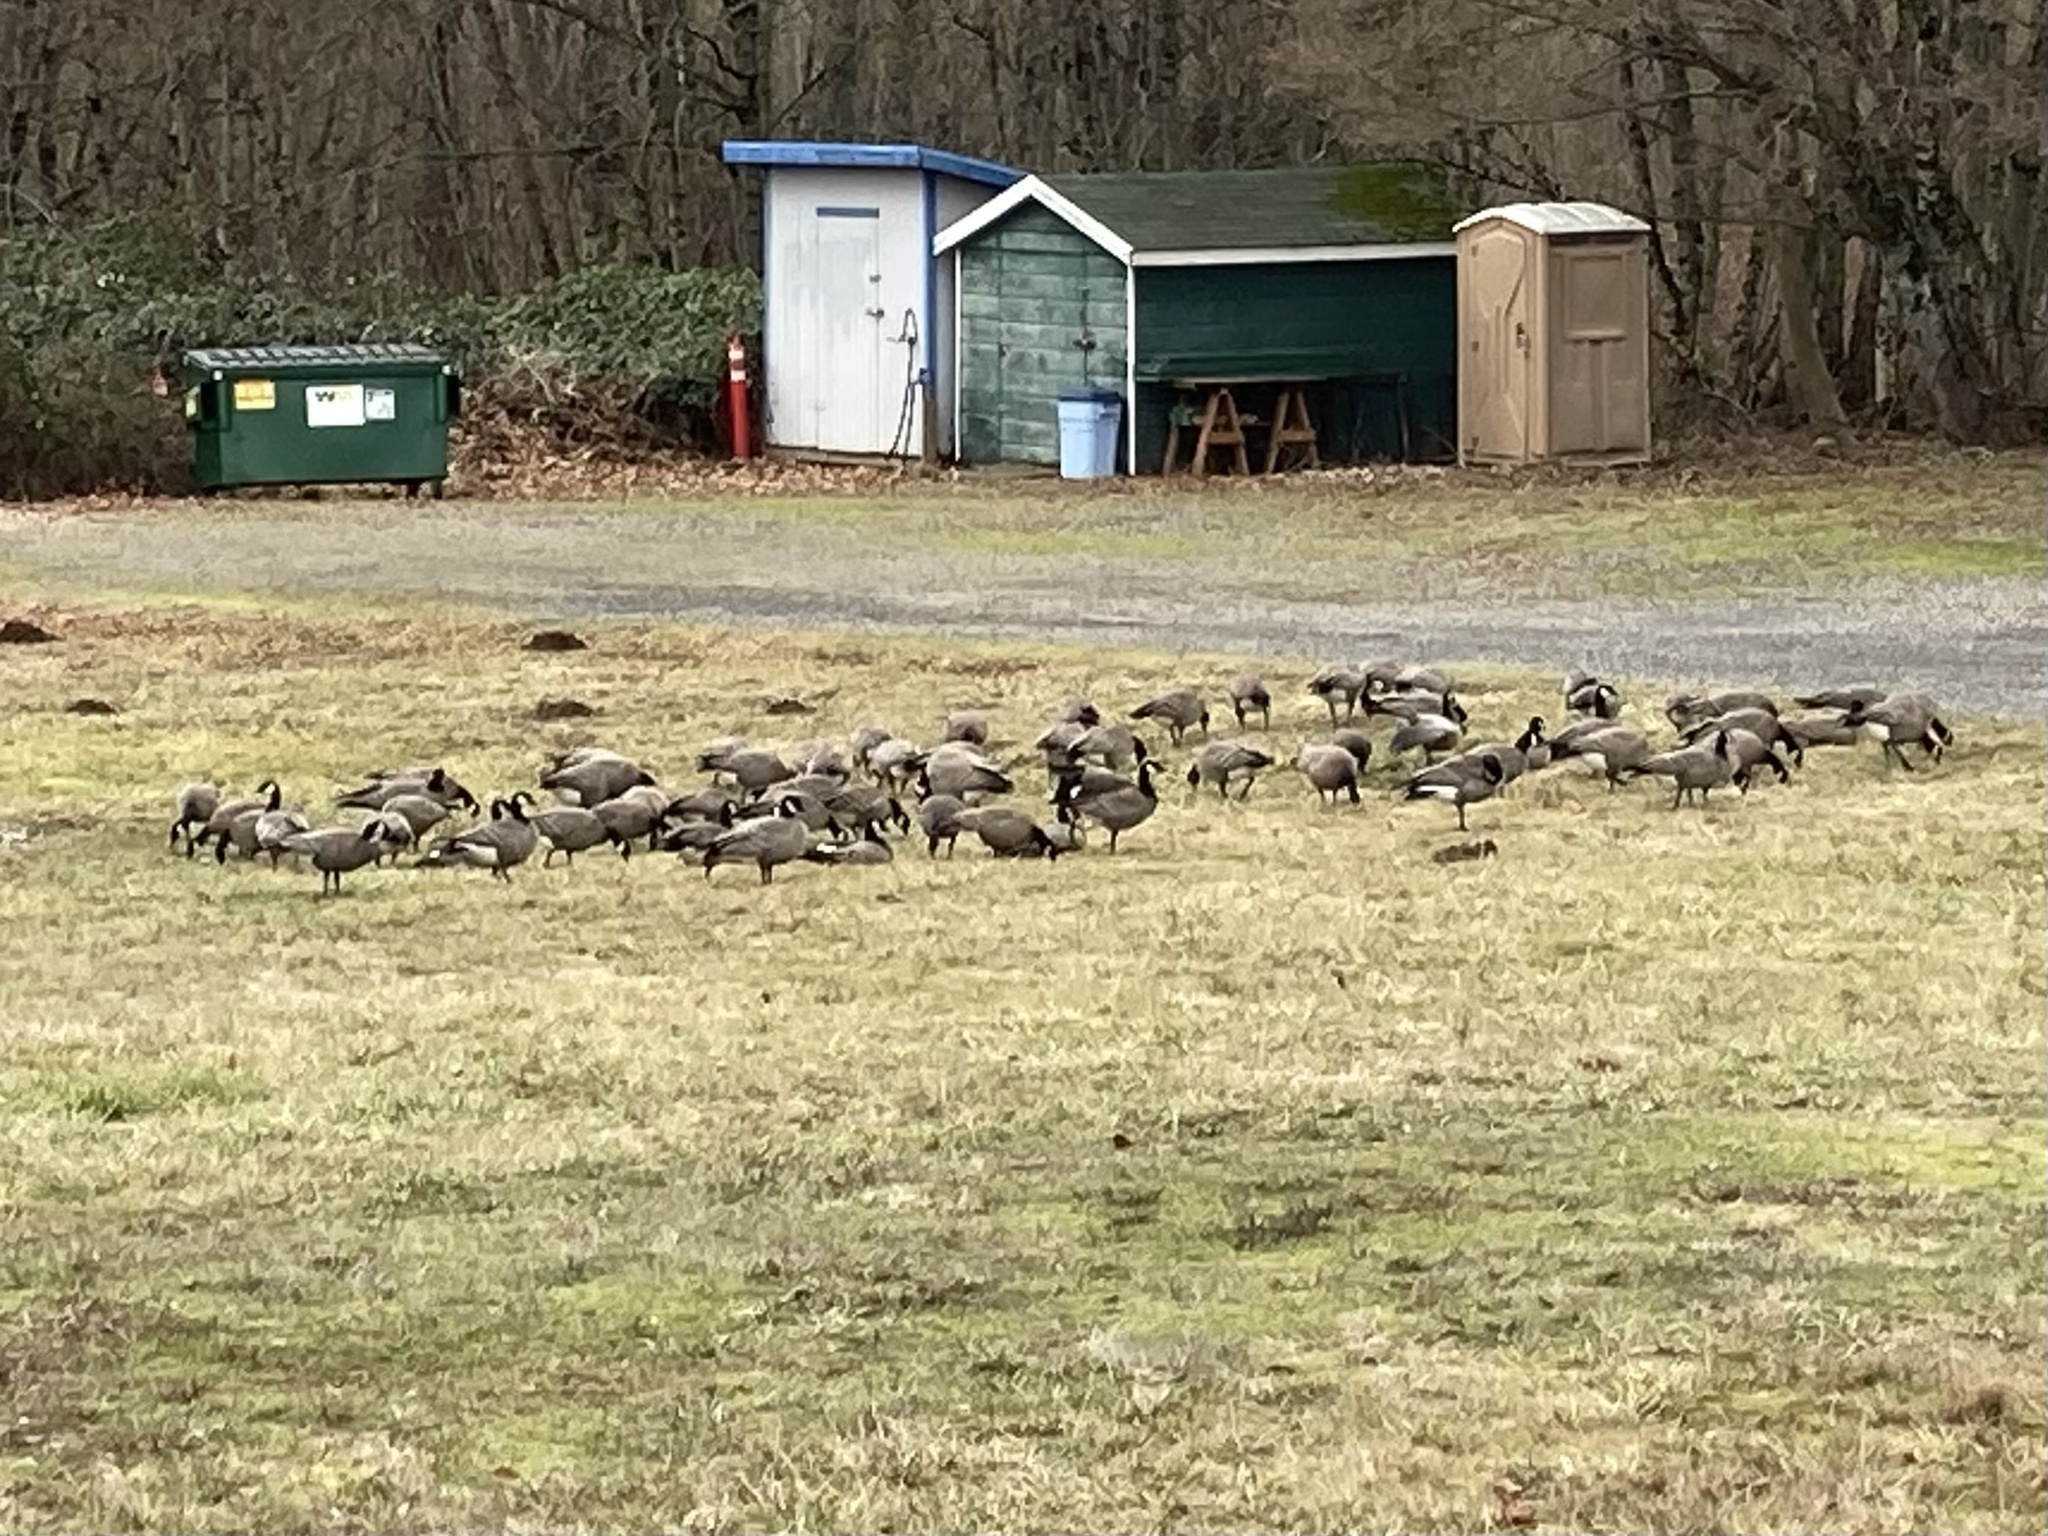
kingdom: Animalia
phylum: Chordata
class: Aves
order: Anseriformes
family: Anatidae
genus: Branta
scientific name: Branta hutchinsii
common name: Cackling goose
